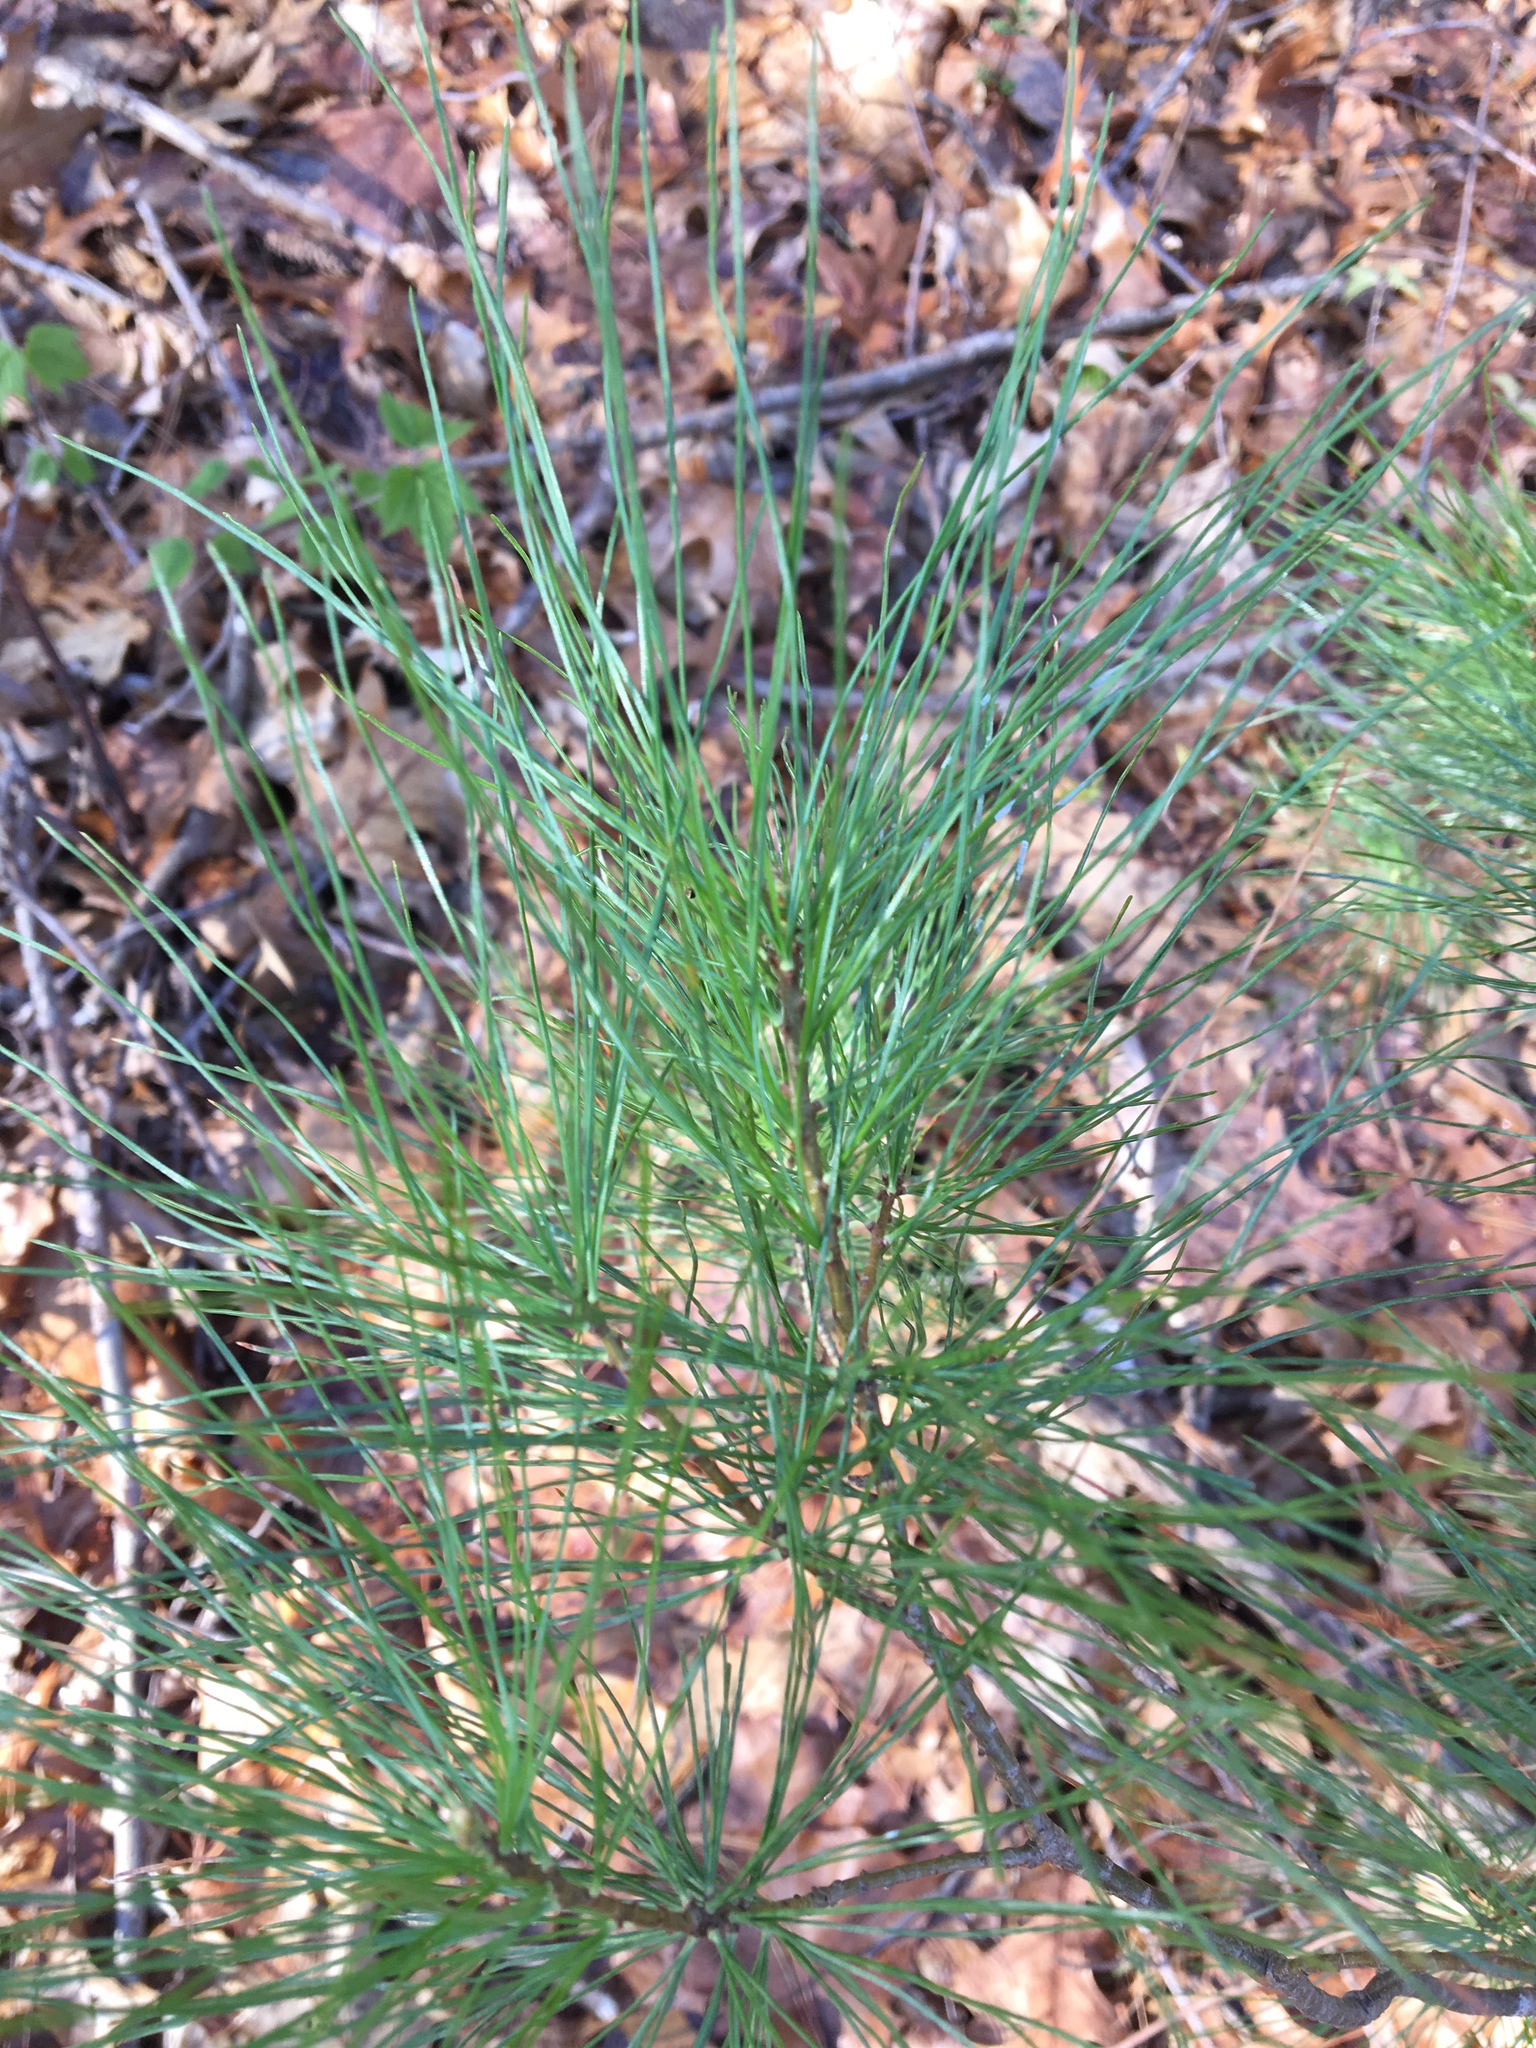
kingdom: Plantae
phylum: Tracheophyta
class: Pinopsida
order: Pinales
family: Pinaceae
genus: Pinus
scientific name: Pinus strobus
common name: Weymouth pine
